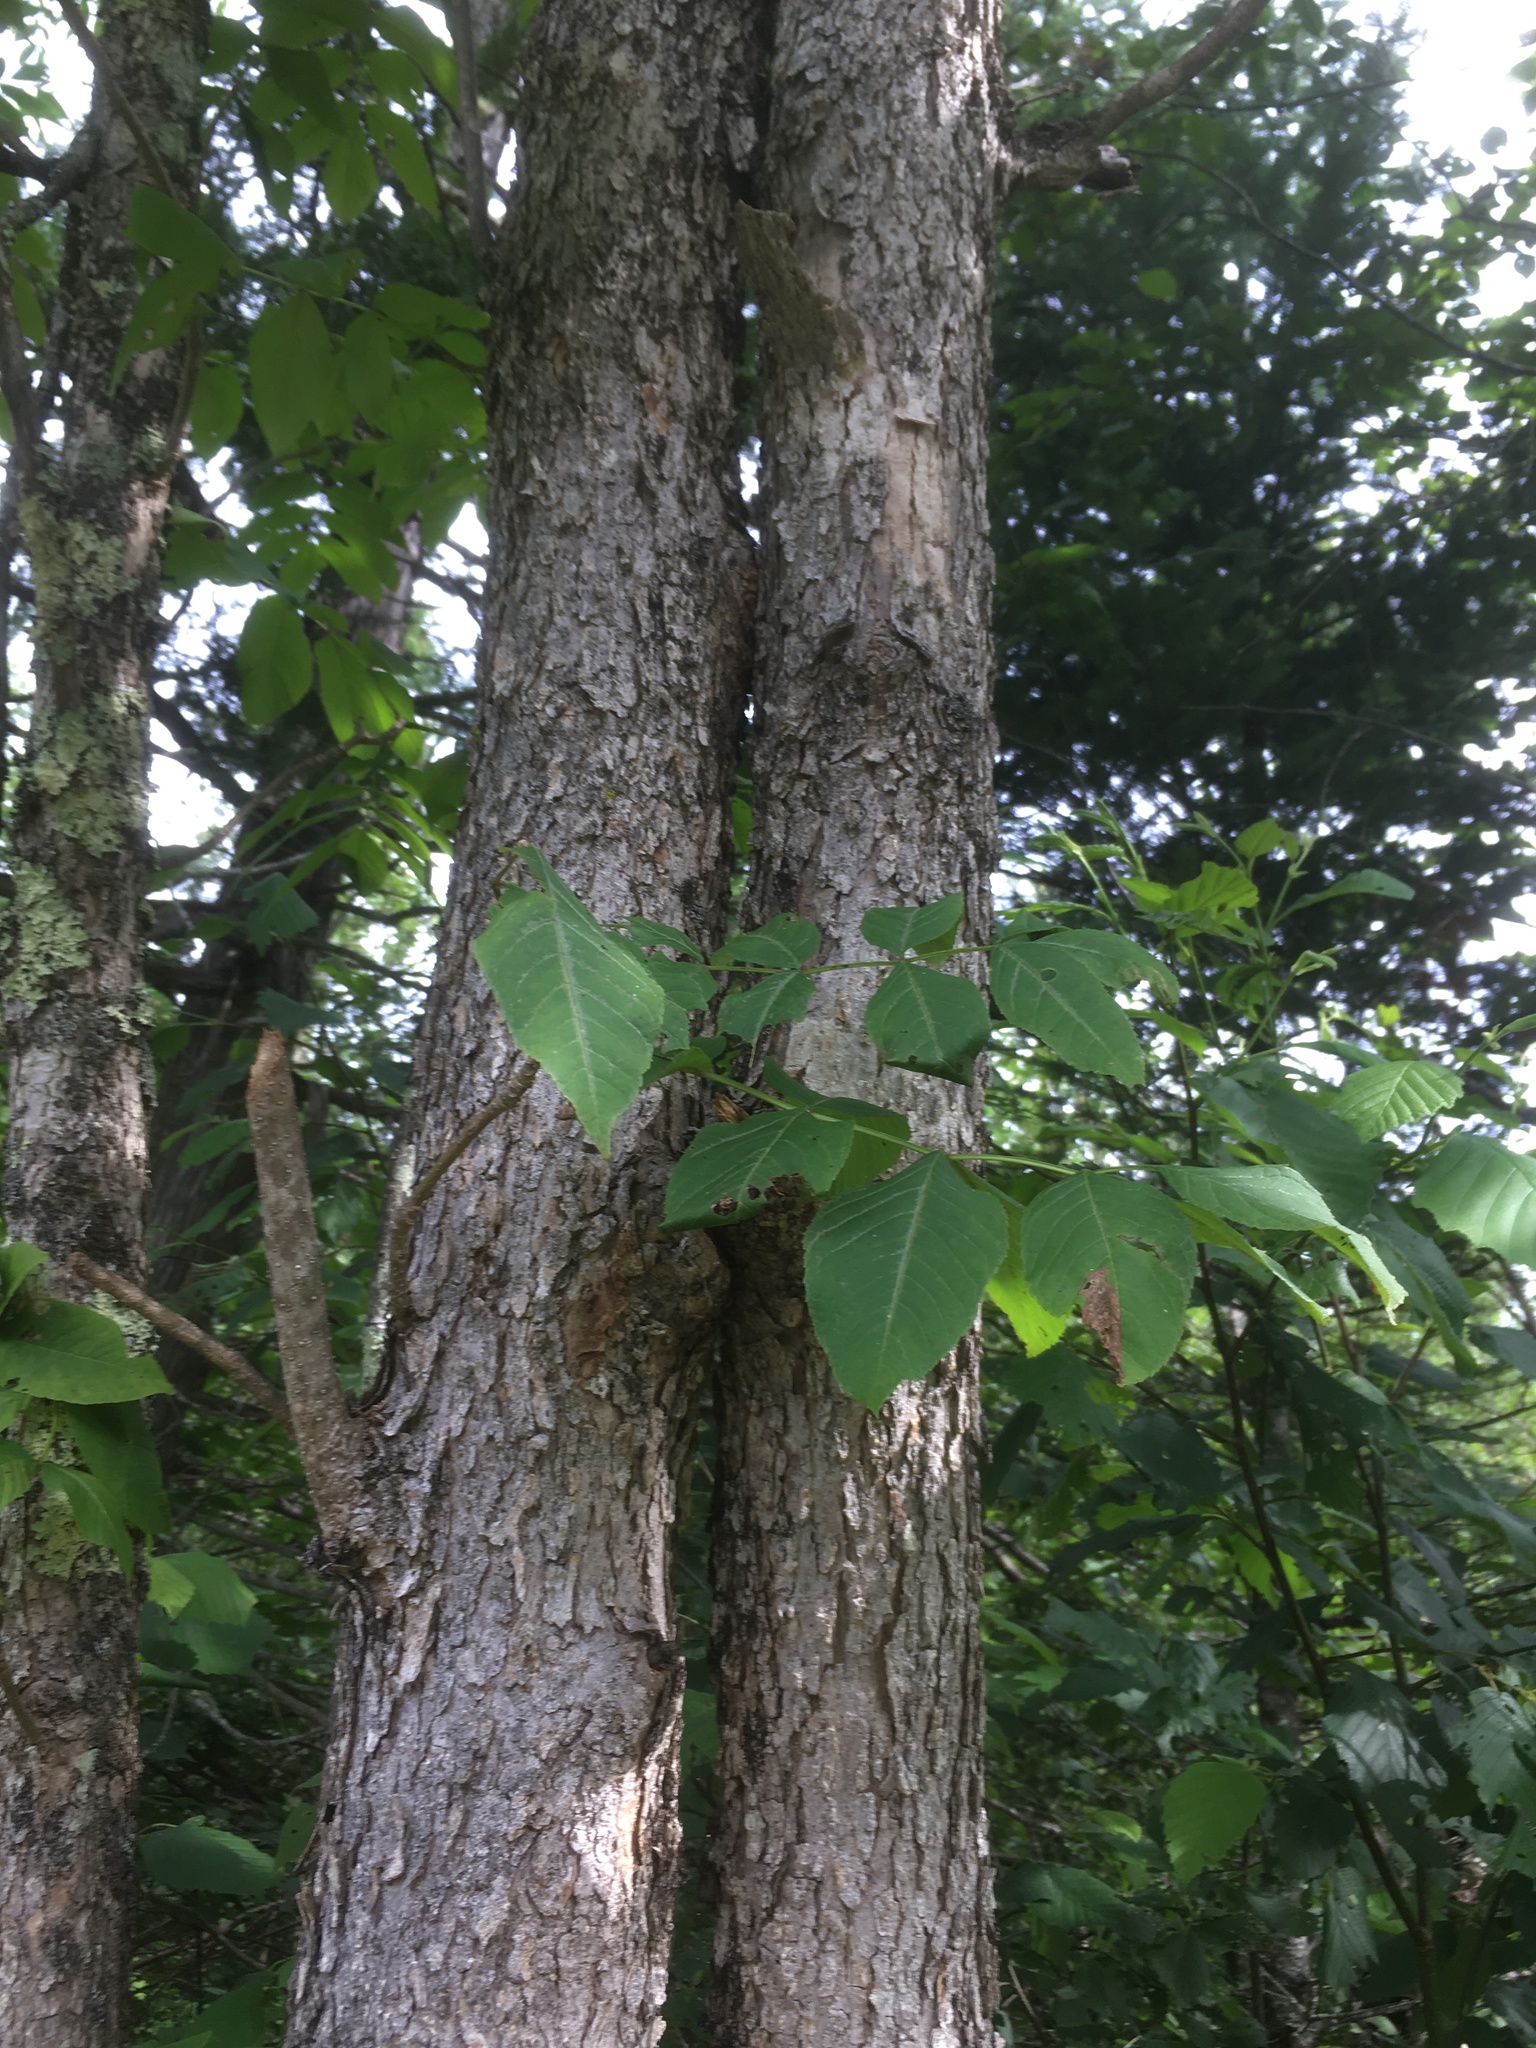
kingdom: Plantae
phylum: Tracheophyta
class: Magnoliopsida
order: Lamiales
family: Oleaceae
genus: Fraxinus
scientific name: Fraxinus nigra
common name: Black ash
